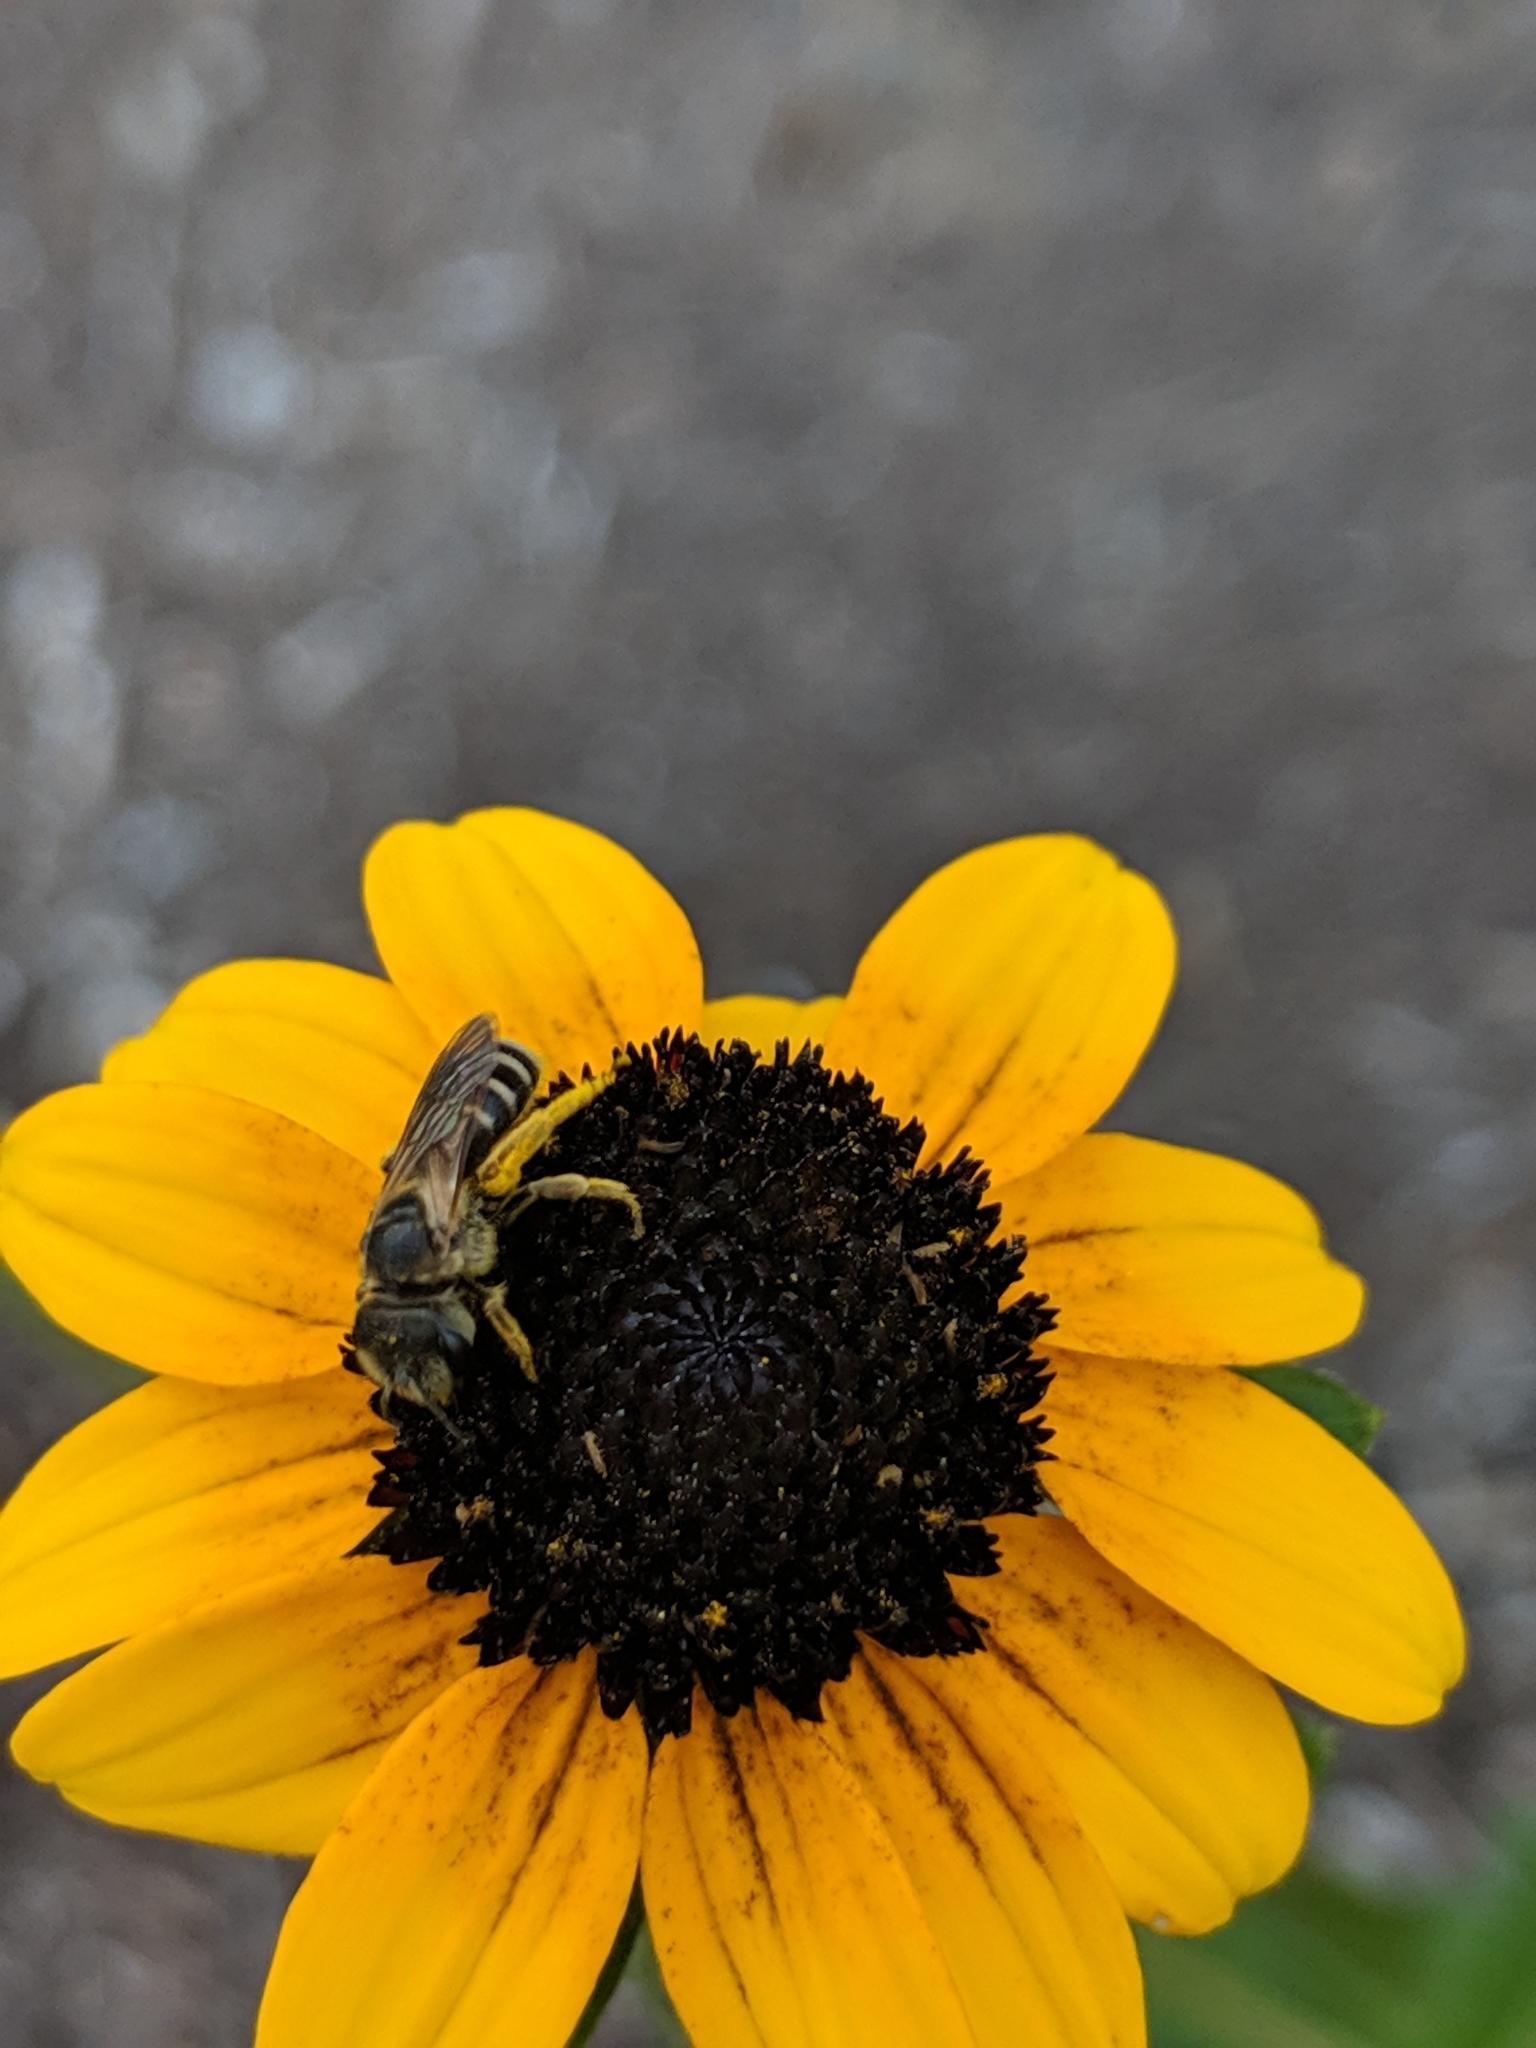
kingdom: Animalia
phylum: Arthropoda
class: Insecta
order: Hymenoptera
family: Halictidae
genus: Halictus
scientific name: Halictus ligatus
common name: Ligated furrow bee
